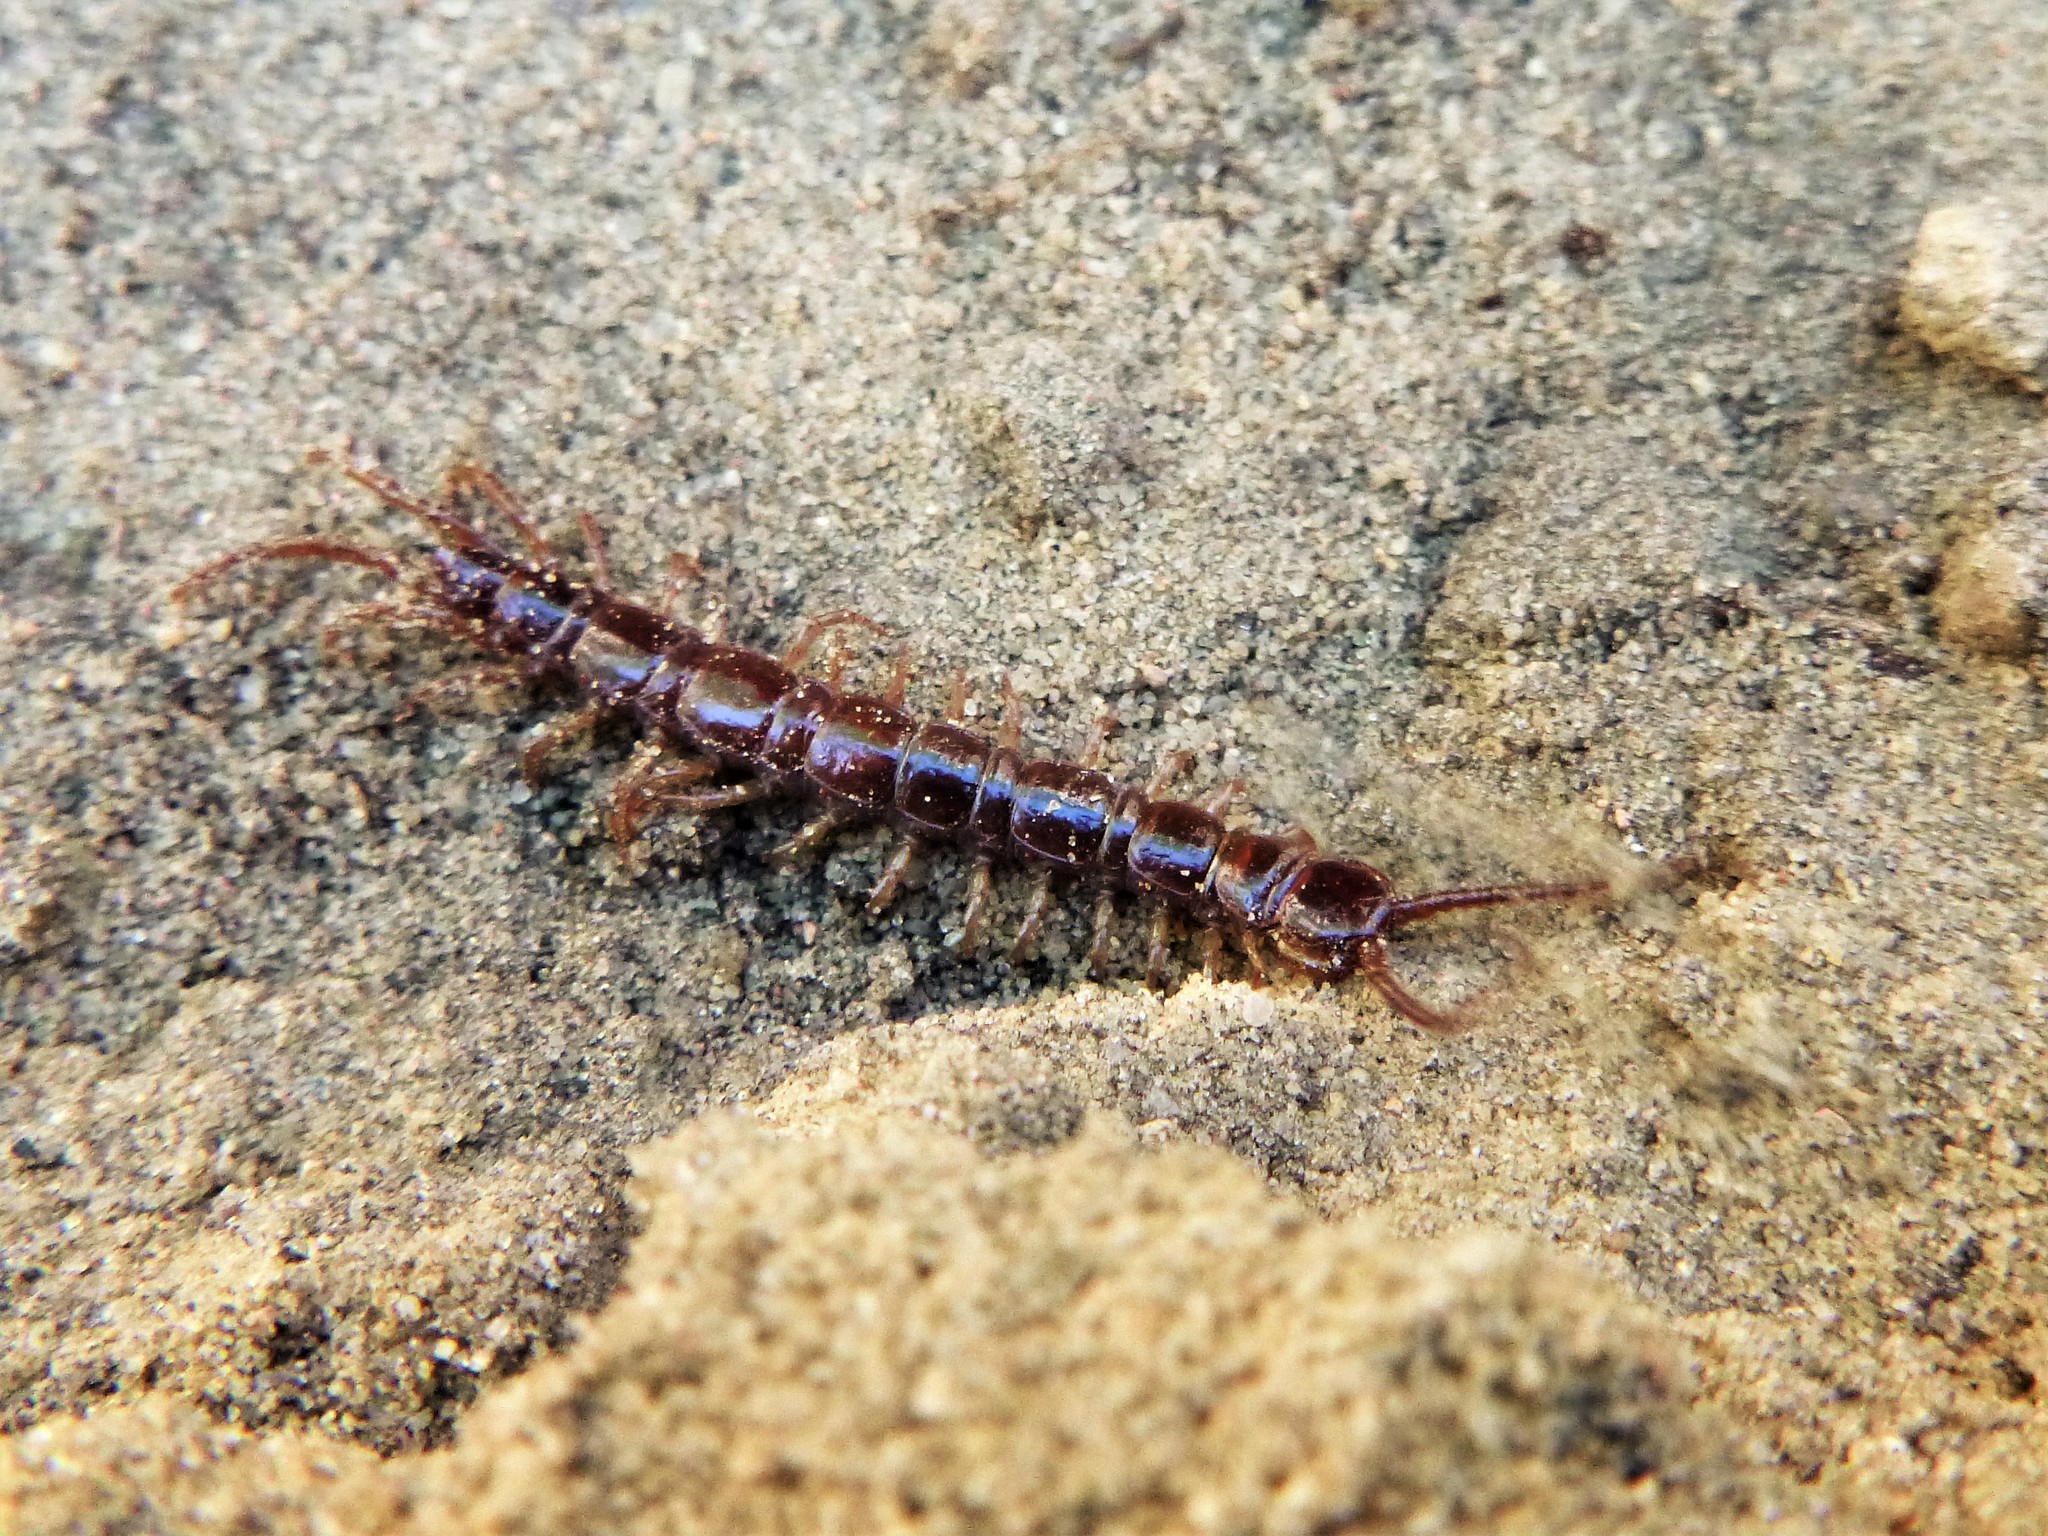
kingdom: Animalia
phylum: Arthropoda
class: Chilopoda
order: Lithobiomorpha
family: Lithobiidae
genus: Lithobius
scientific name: Lithobius forficatus
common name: Centipede
